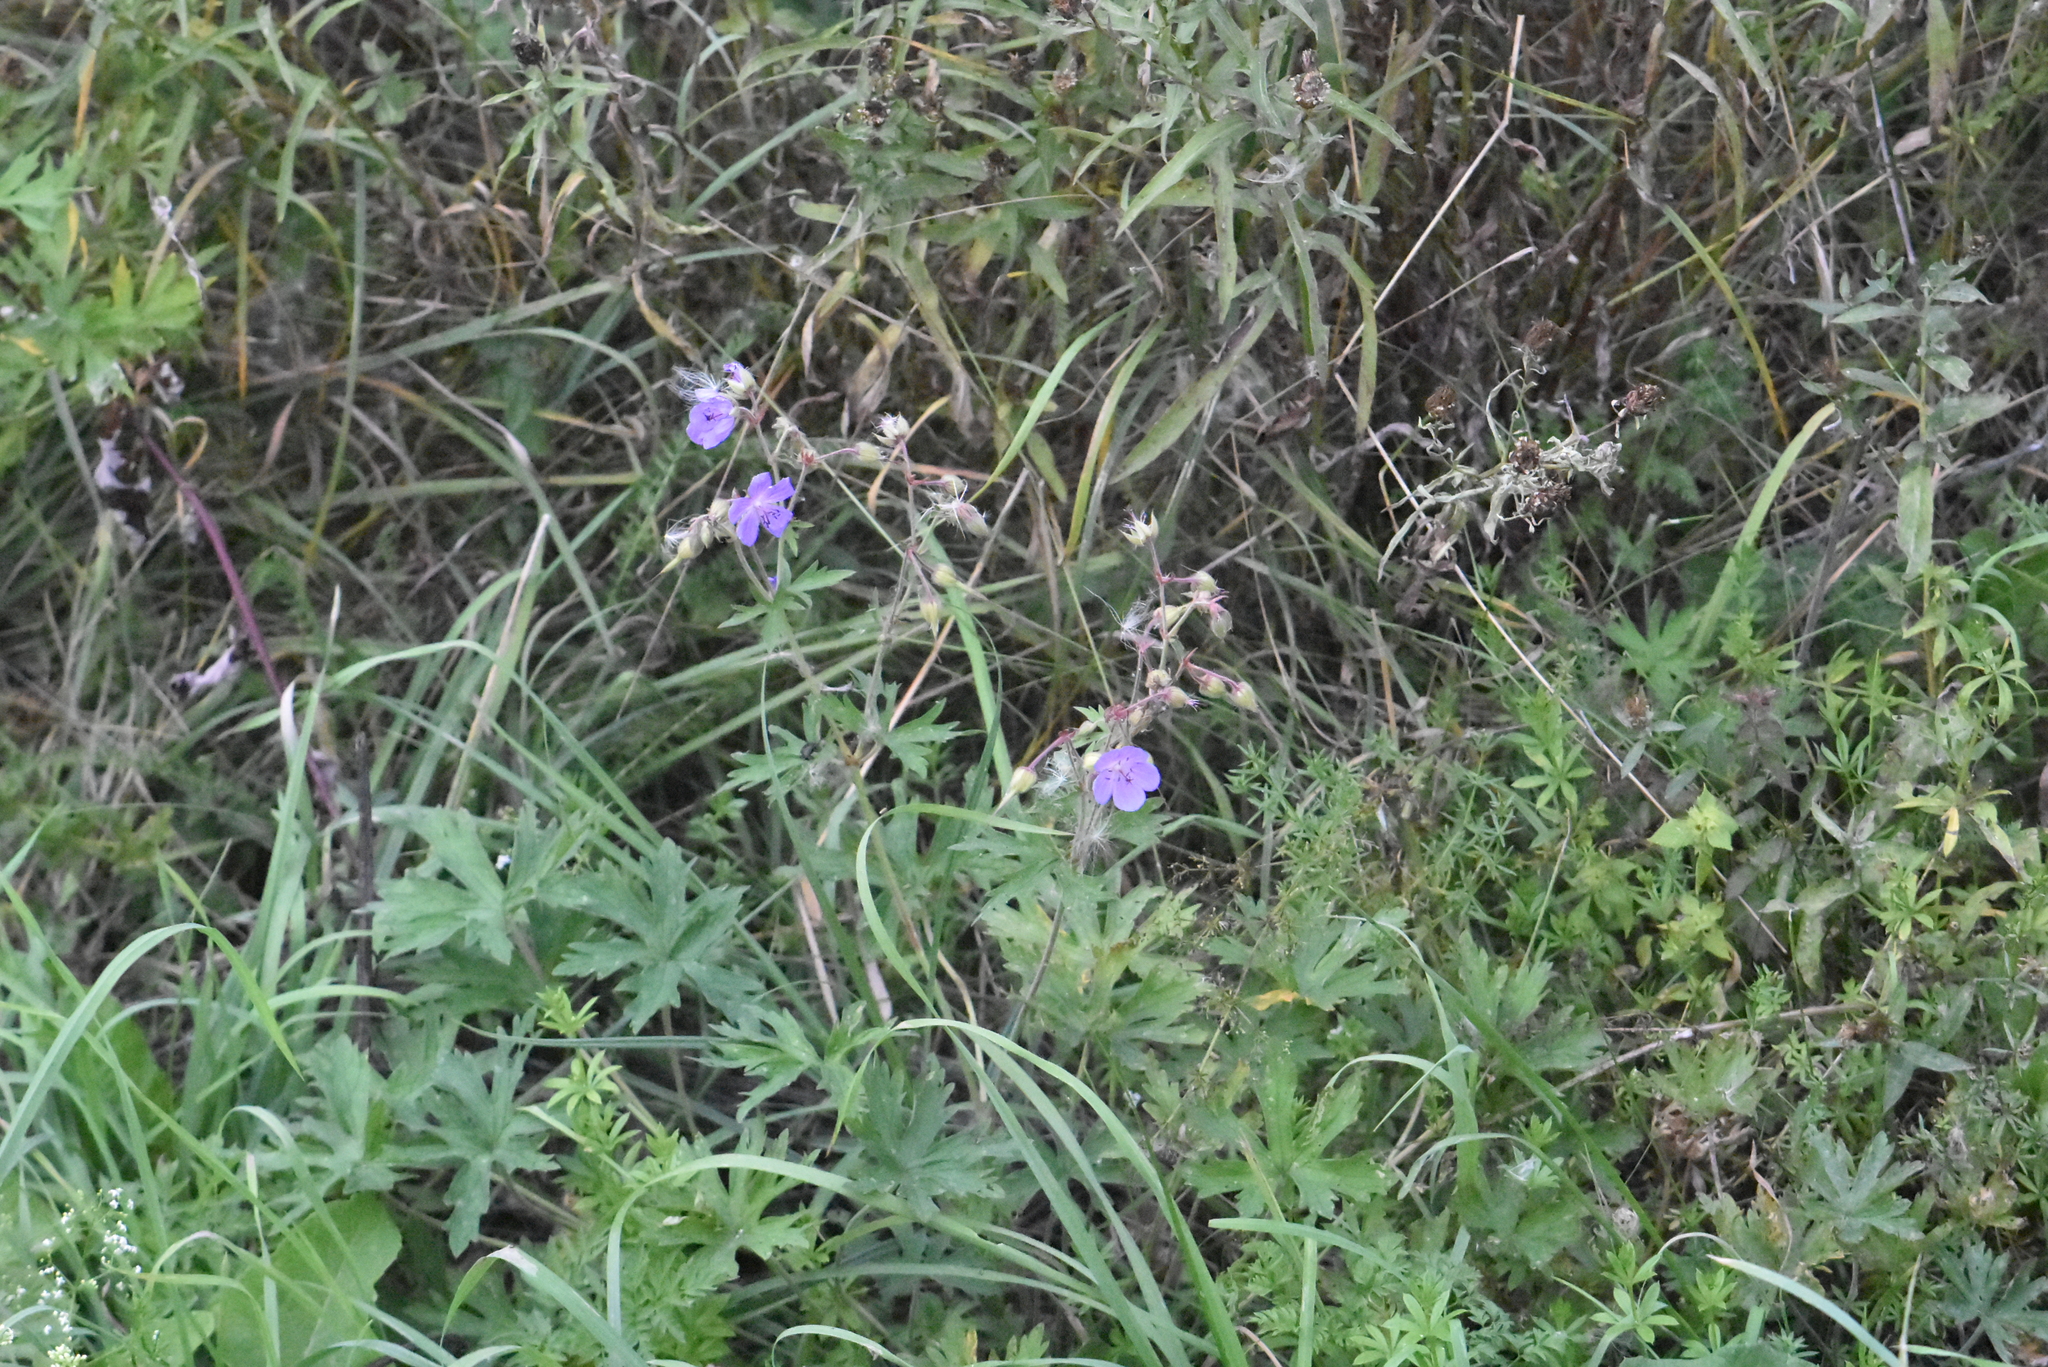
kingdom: Plantae
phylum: Tracheophyta
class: Magnoliopsida
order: Geraniales
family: Geraniaceae
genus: Geranium
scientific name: Geranium pratense
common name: Meadow crane's-bill
